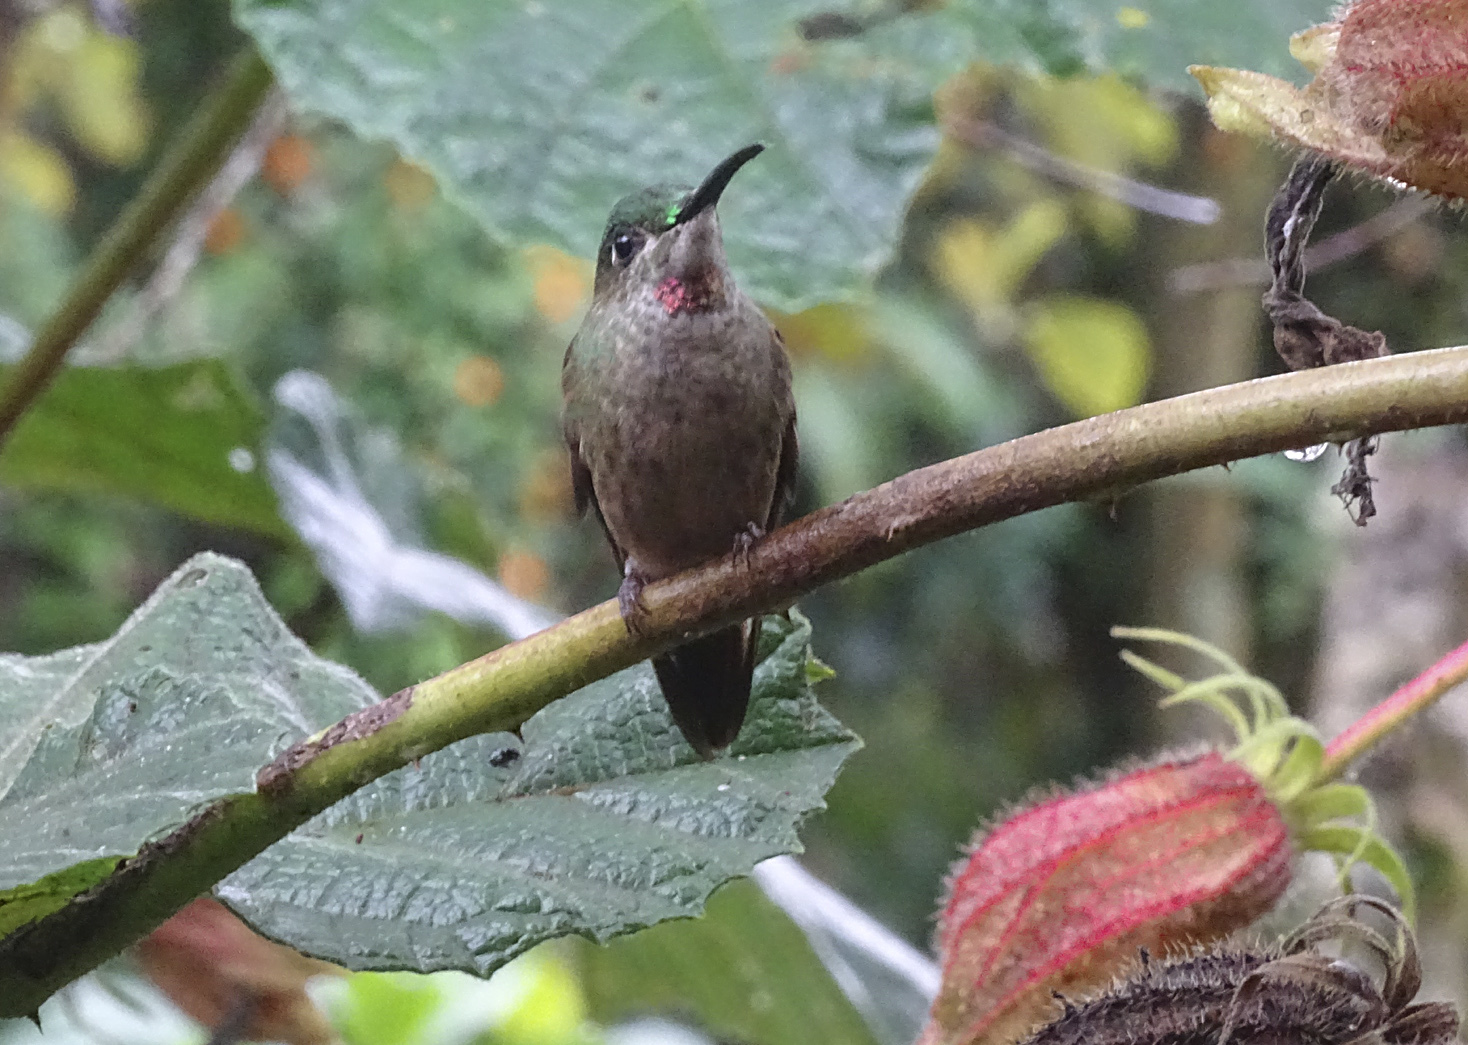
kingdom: Animalia
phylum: Chordata
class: Aves
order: Apodiformes
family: Trochilidae
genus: Heliodoxa
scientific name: Heliodoxa rubinoides
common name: Fawn-breasted brilliant
